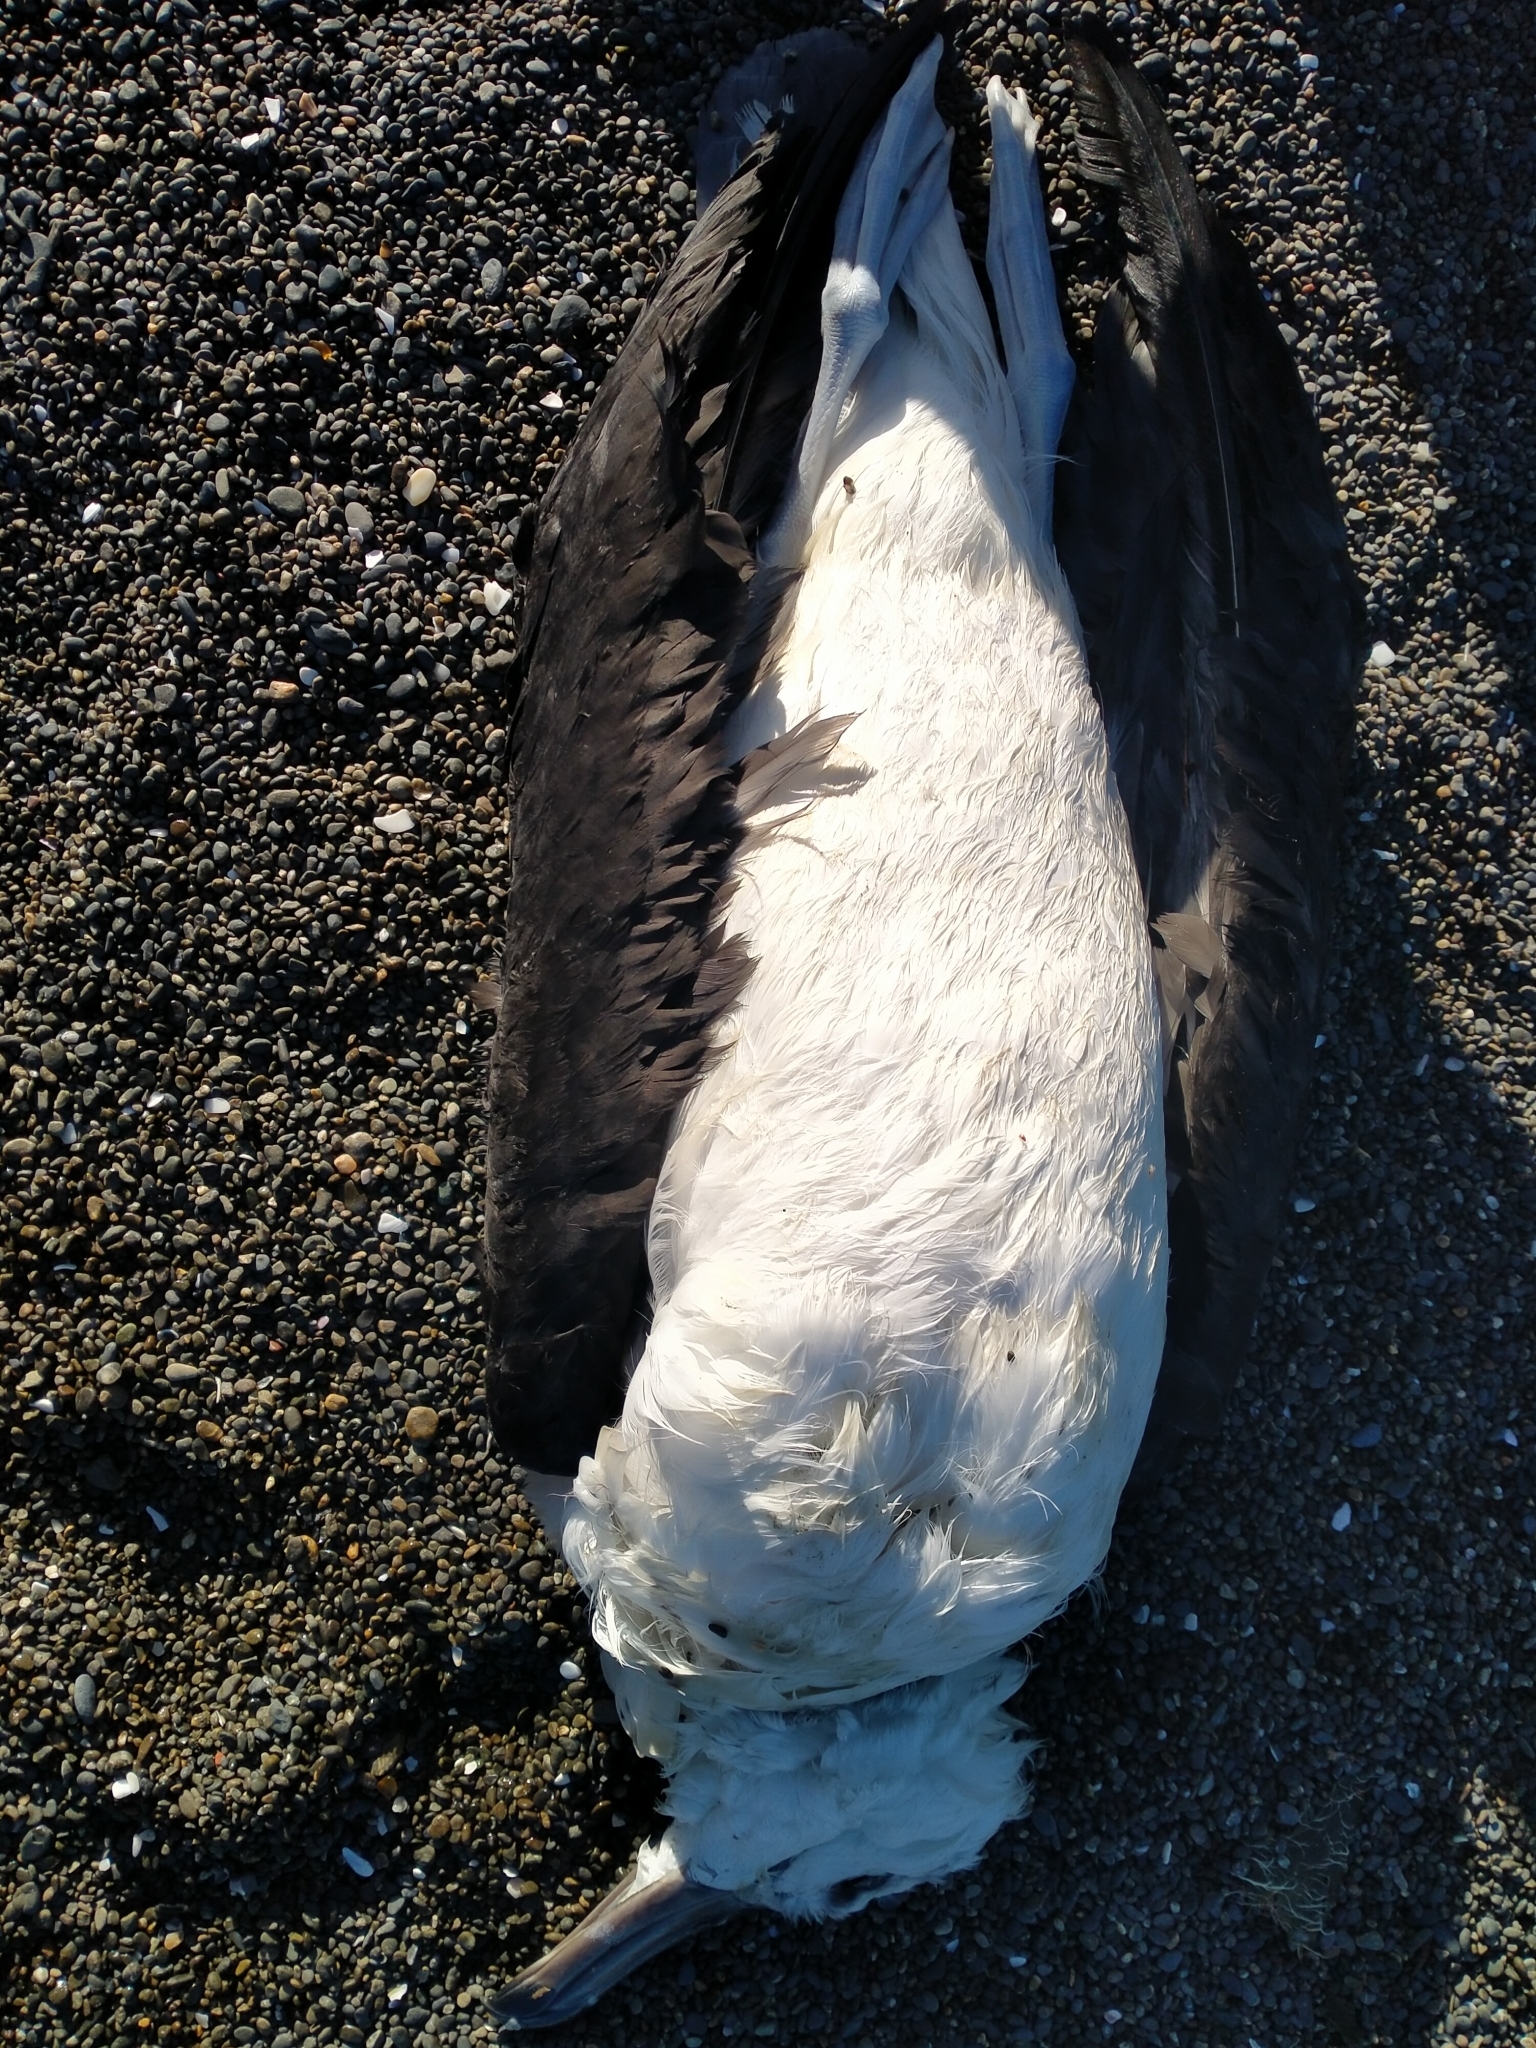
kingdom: Animalia
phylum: Chordata
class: Aves
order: Procellariiformes
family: Diomedeidae
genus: Thalassarche
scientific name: Thalassarche melanophris
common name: Black-browed albatross
